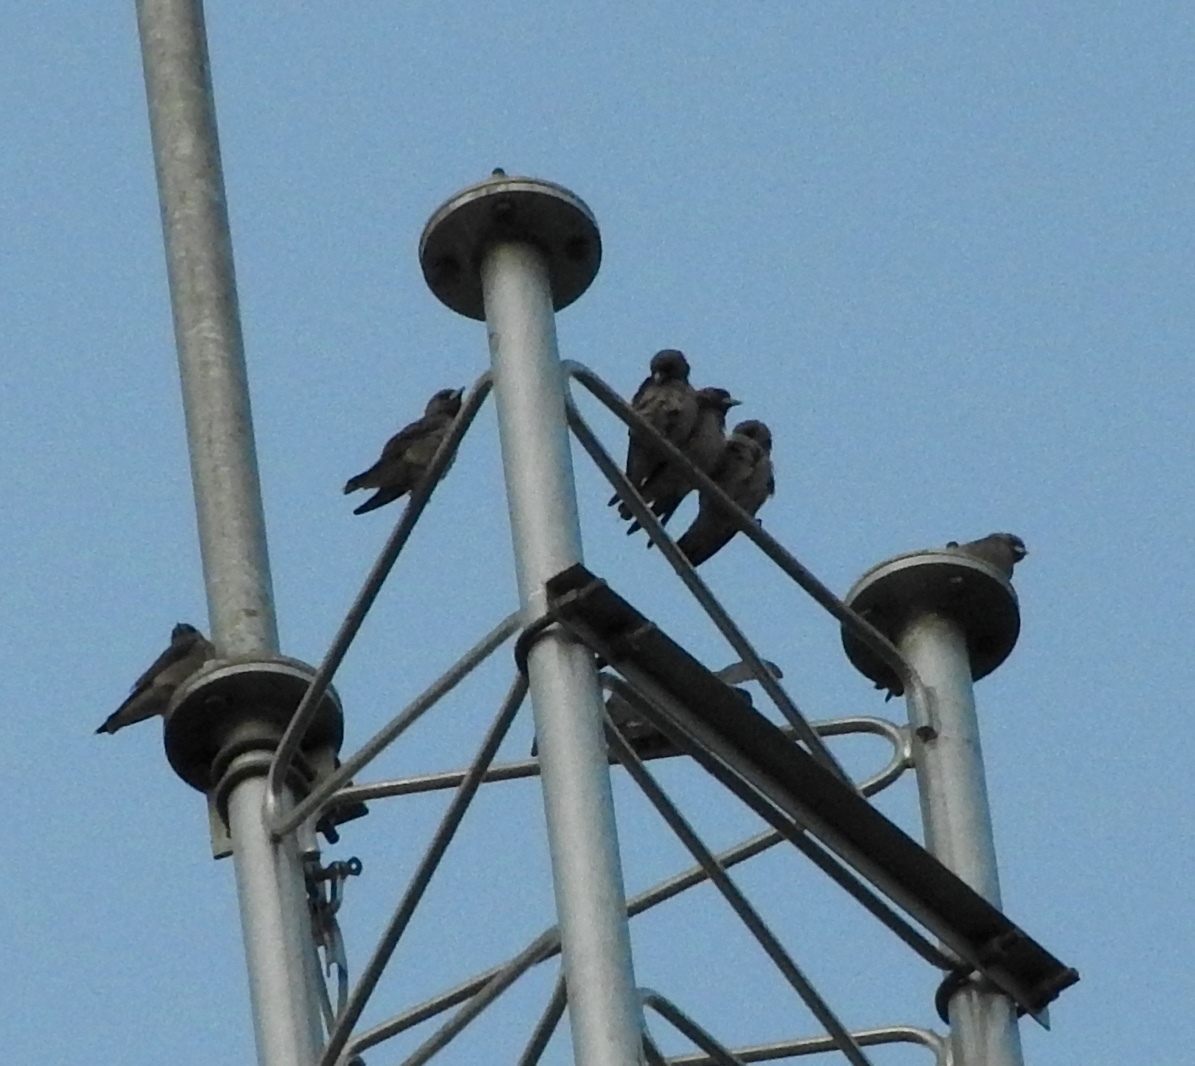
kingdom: Animalia
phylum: Chordata
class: Aves
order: Passeriformes
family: Artamidae
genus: Artamus
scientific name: Artamus fuscus
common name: Ashy woodswallow
